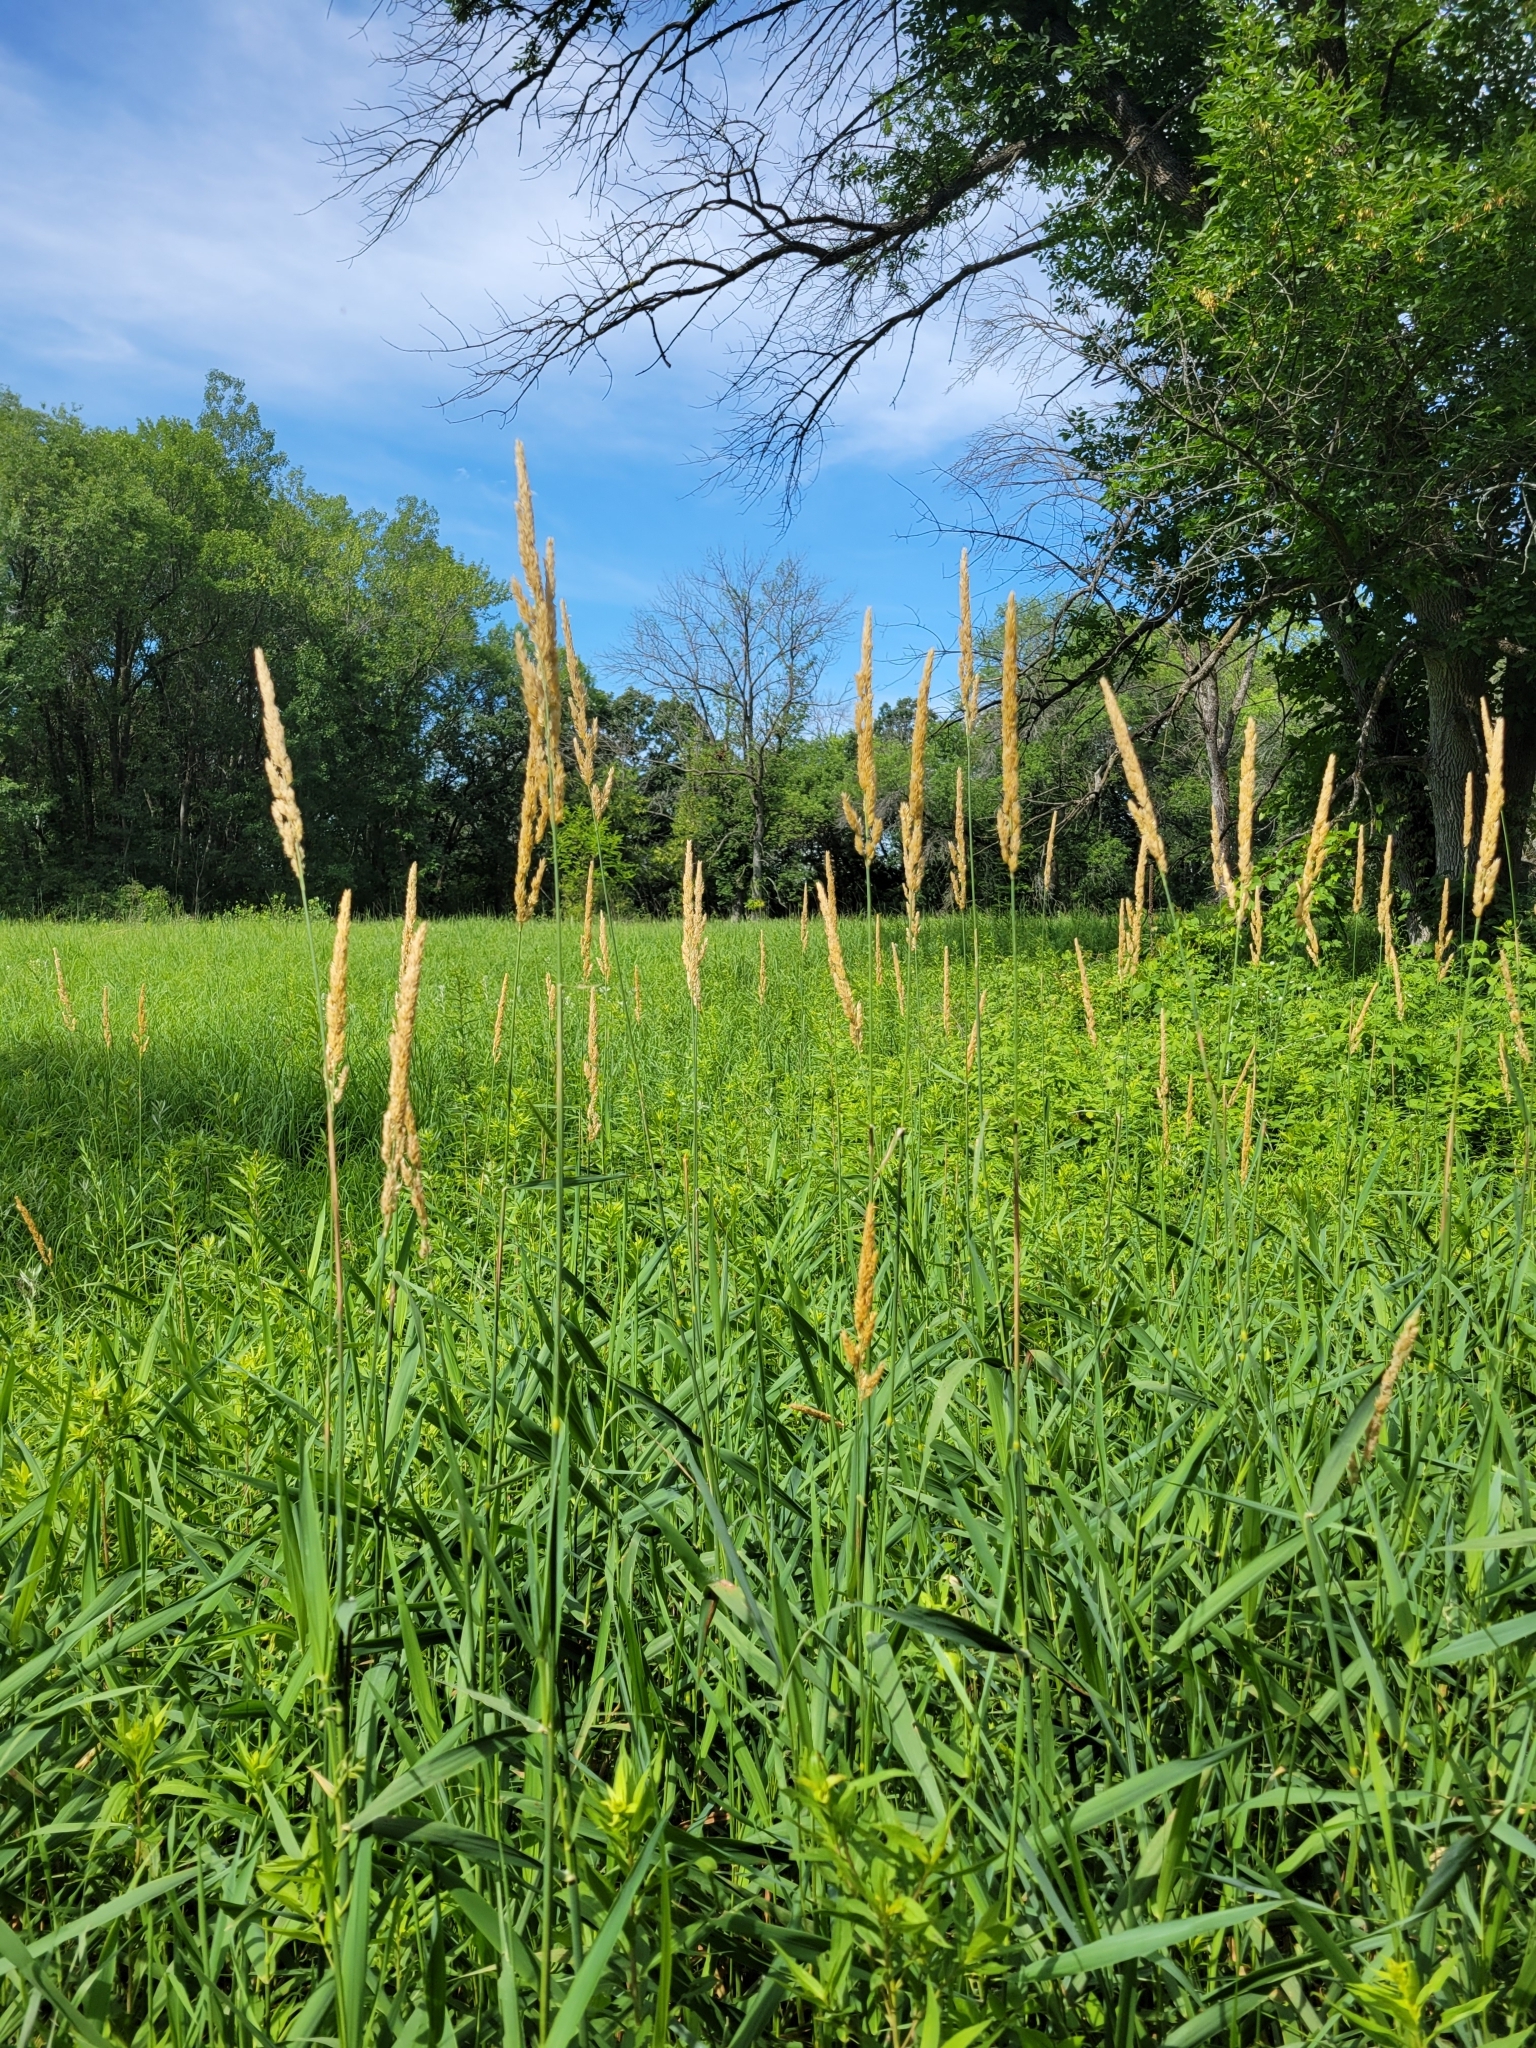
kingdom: Plantae
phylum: Tracheophyta
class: Liliopsida
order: Poales
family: Poaceae
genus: Phalaris
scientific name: Phalaris arundinacea
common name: Reed canary-grass
